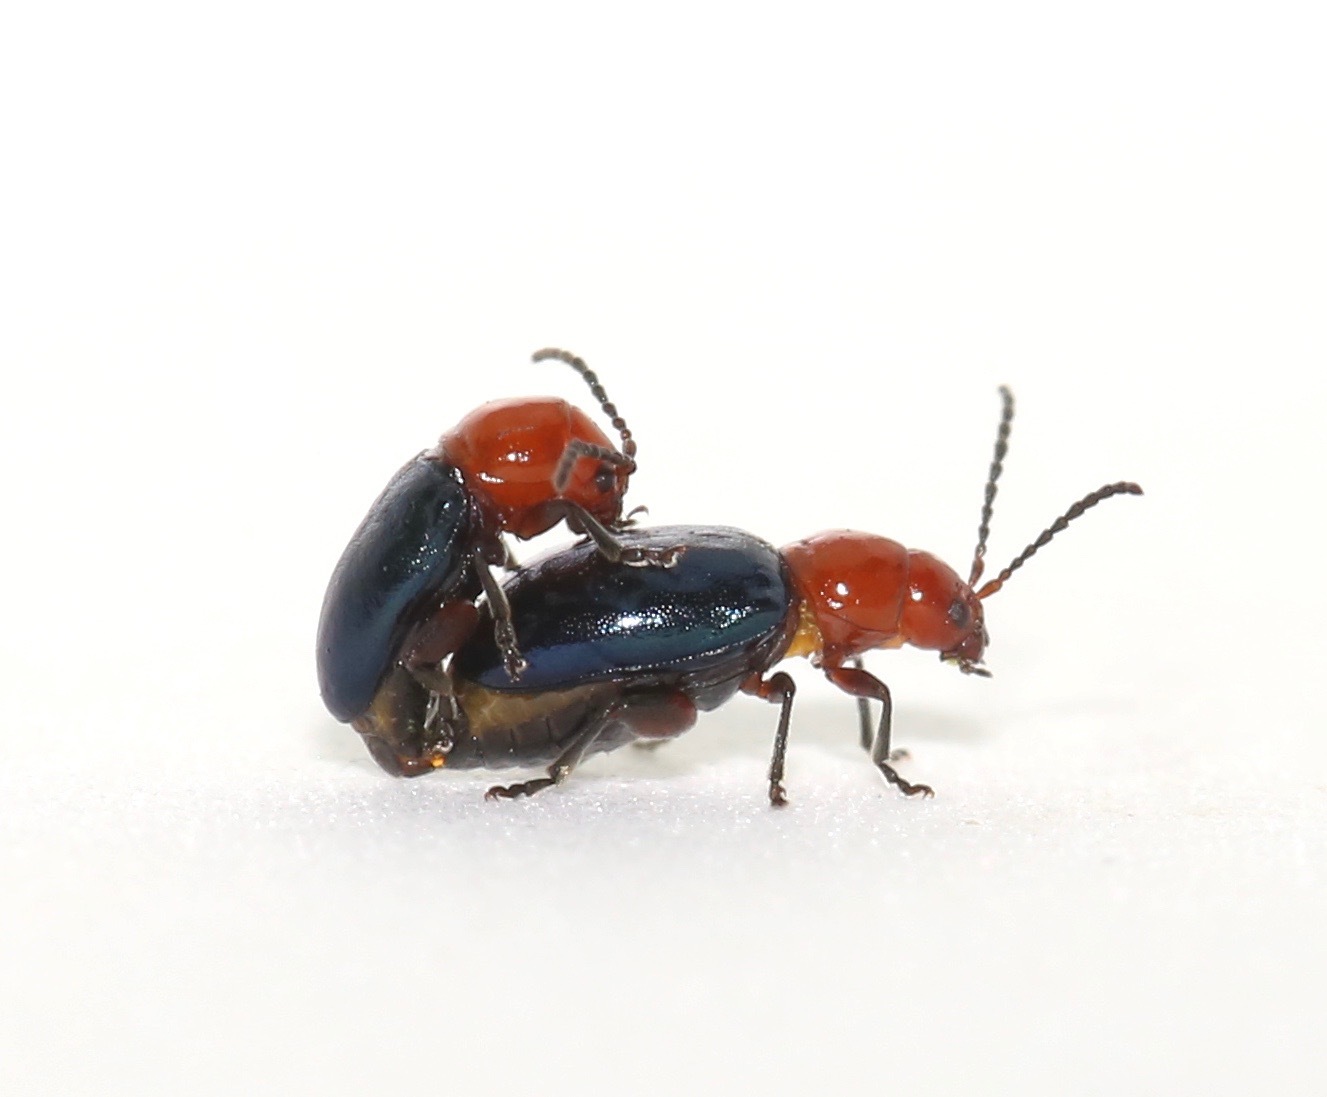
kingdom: Animalia
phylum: Arthropoda
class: Insecta
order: Coleoptera
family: Chrysomelidae
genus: Syphrea
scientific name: Syphrea flavicollis
